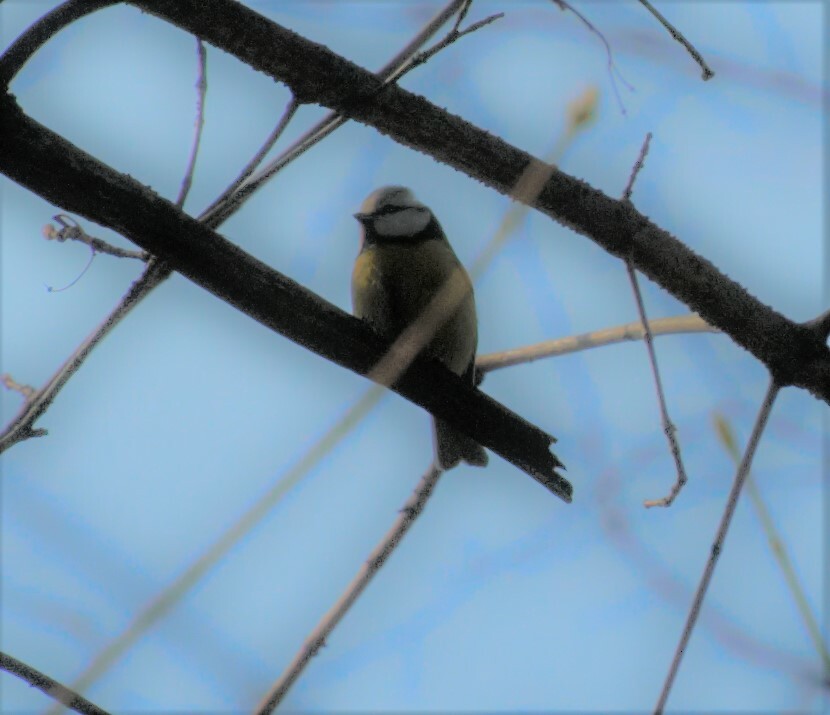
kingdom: Animalia
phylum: Chordata
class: Aves
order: Passeriformes
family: Paridae
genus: Cyanistes
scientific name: Cyanistes caeruleus
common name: Eurasian blue tit
